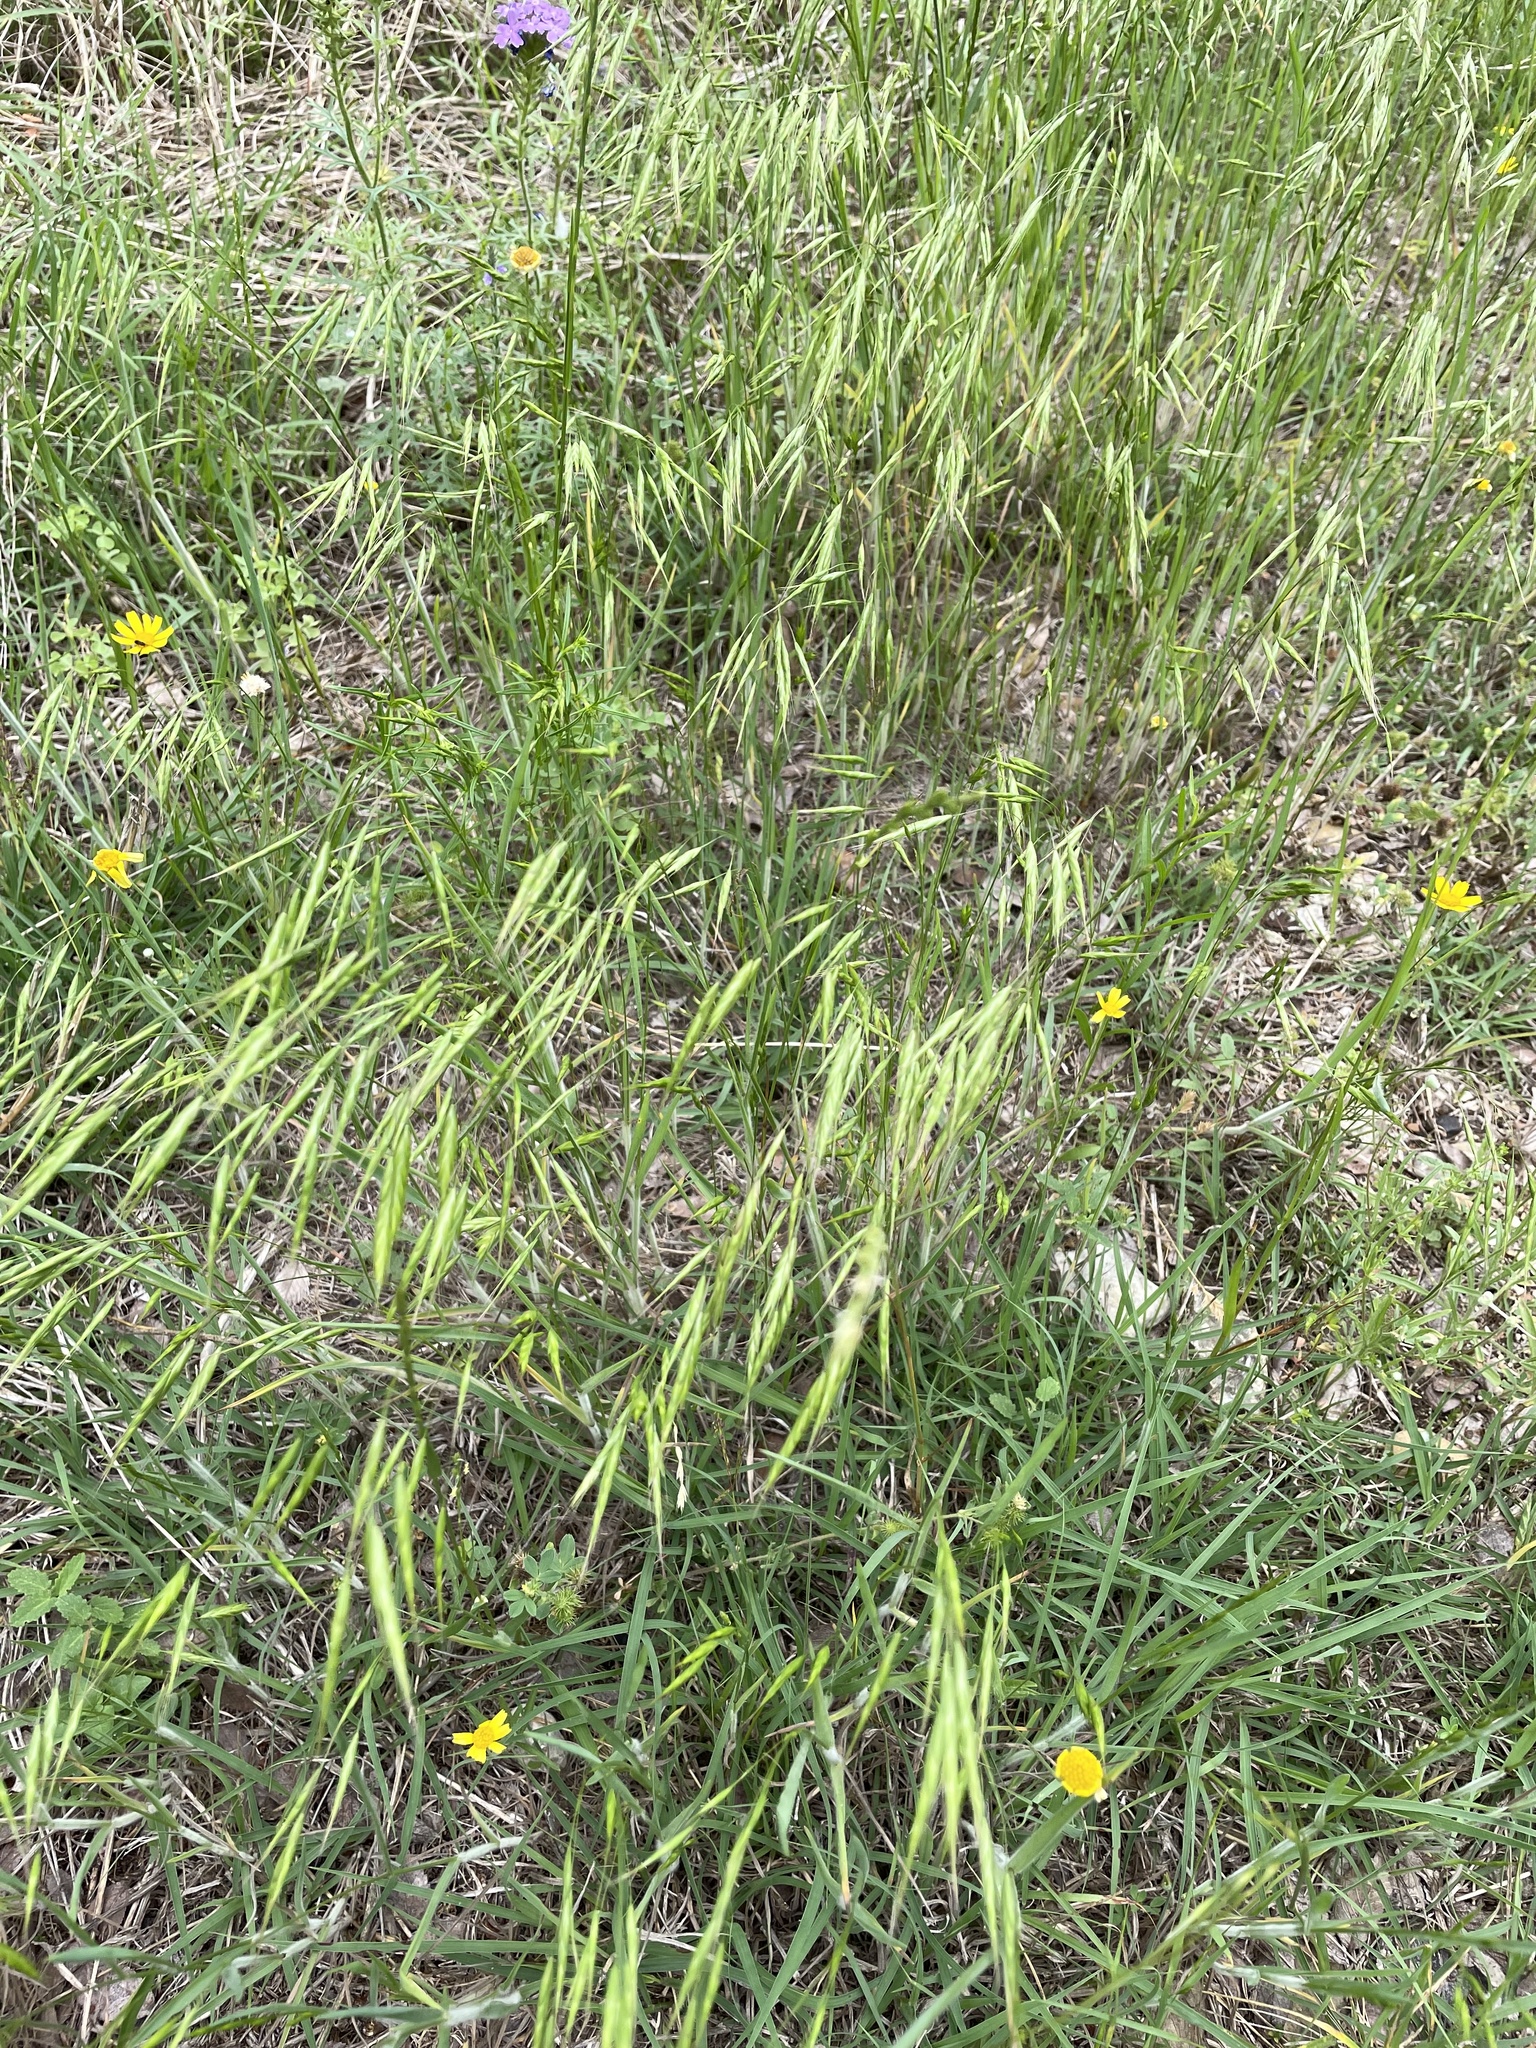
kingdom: Plantae
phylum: Tracheophyta
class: Liliopsida
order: Poales
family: Poaceae
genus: Bromus
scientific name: Bromus japonicus
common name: Japanese brome
